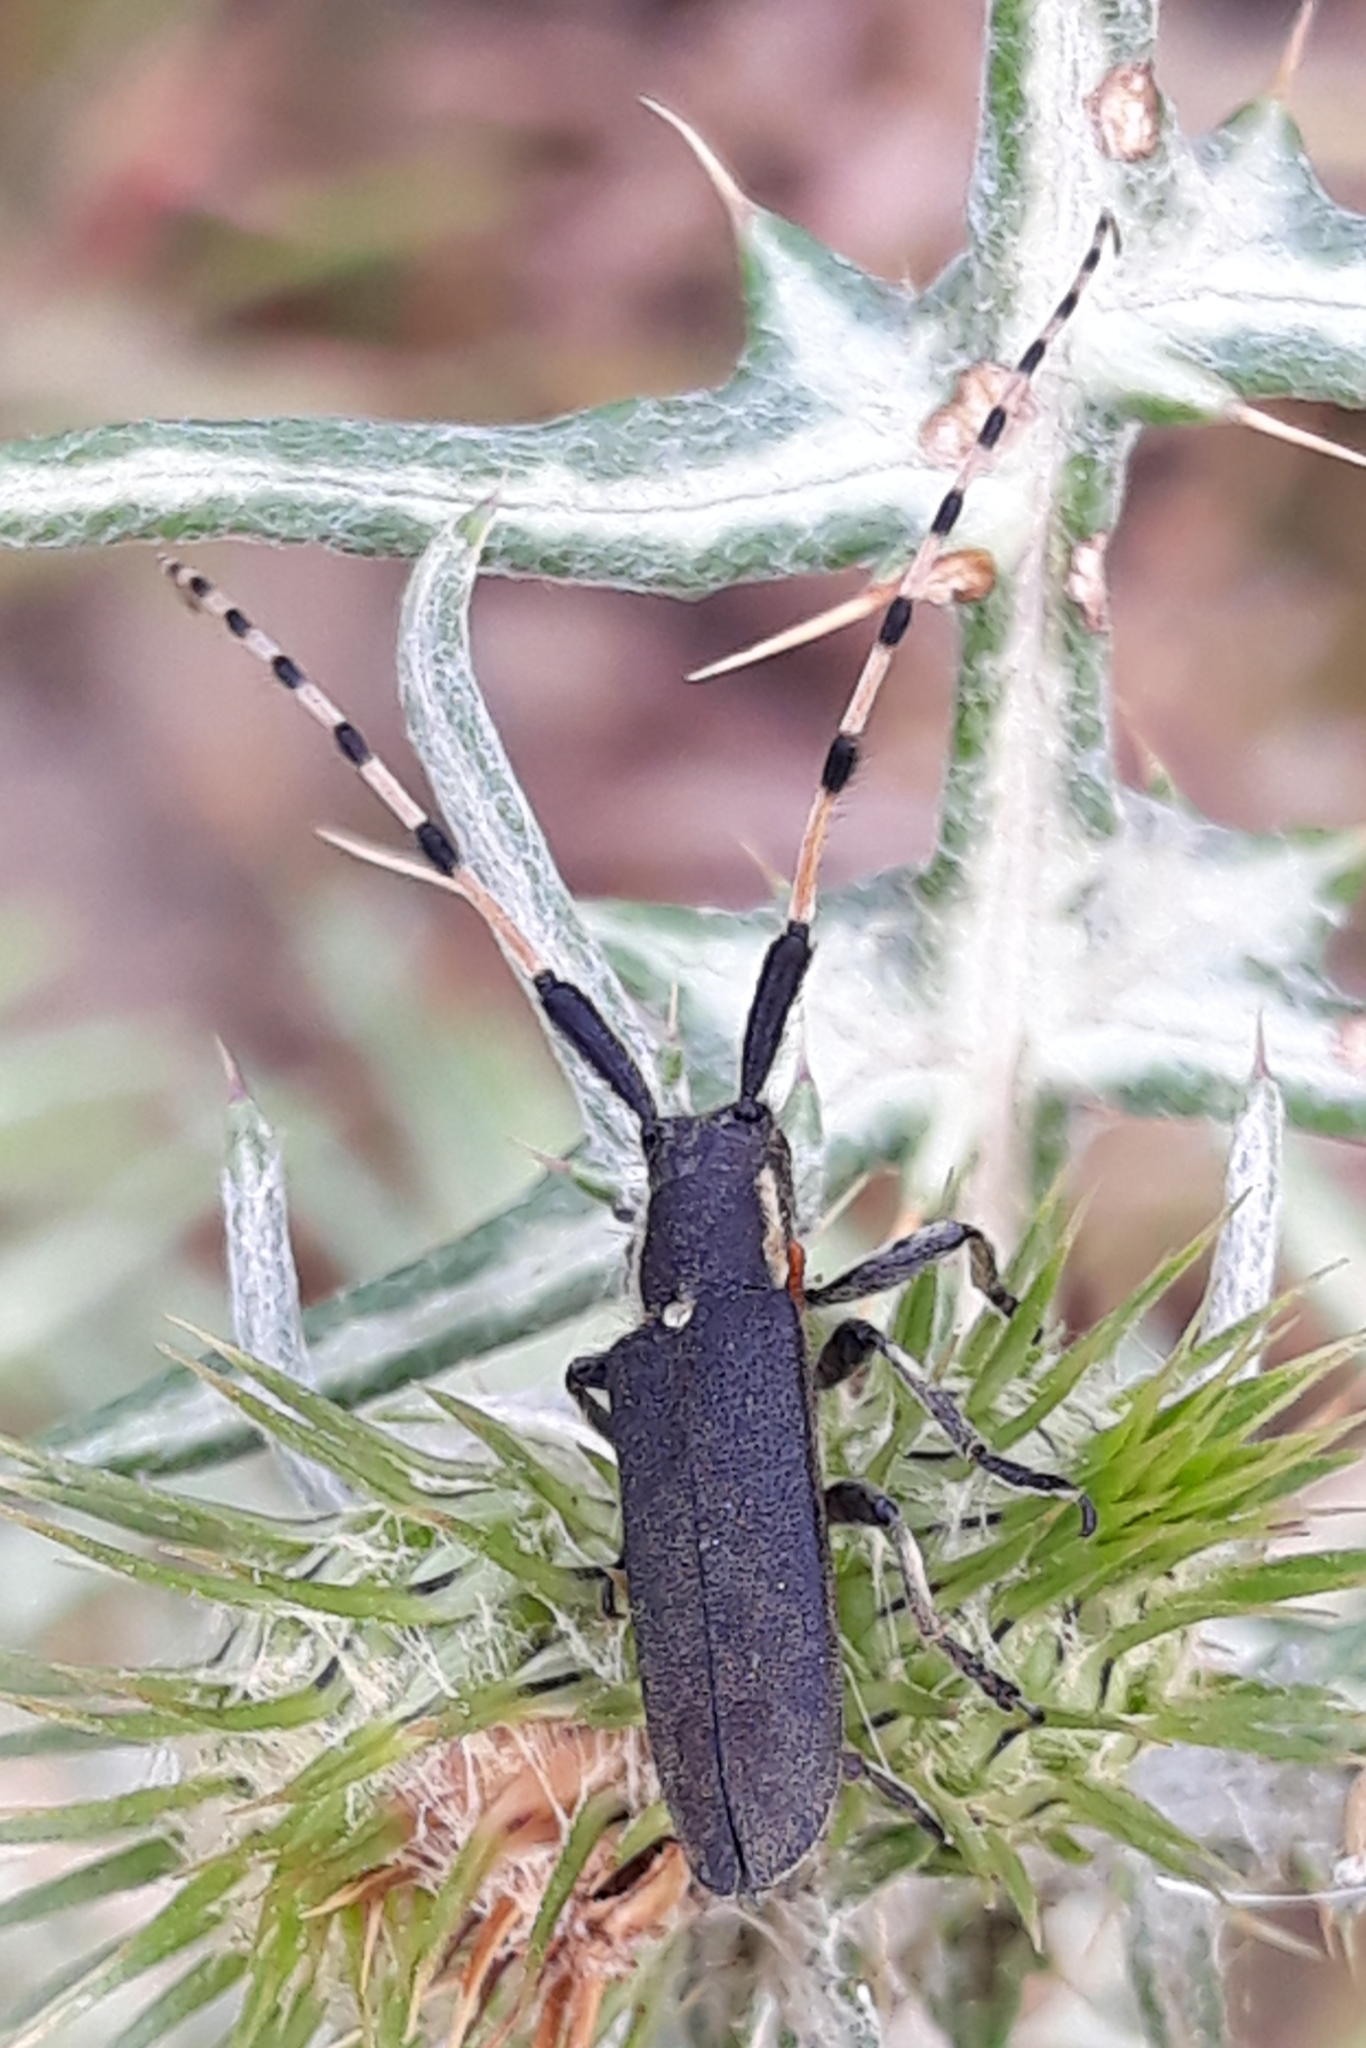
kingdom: Animalia
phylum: Arthropoda
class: Insecta
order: Coleoptera
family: Cerambycidae
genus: Agapanthia
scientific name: Agapanthia annularis
